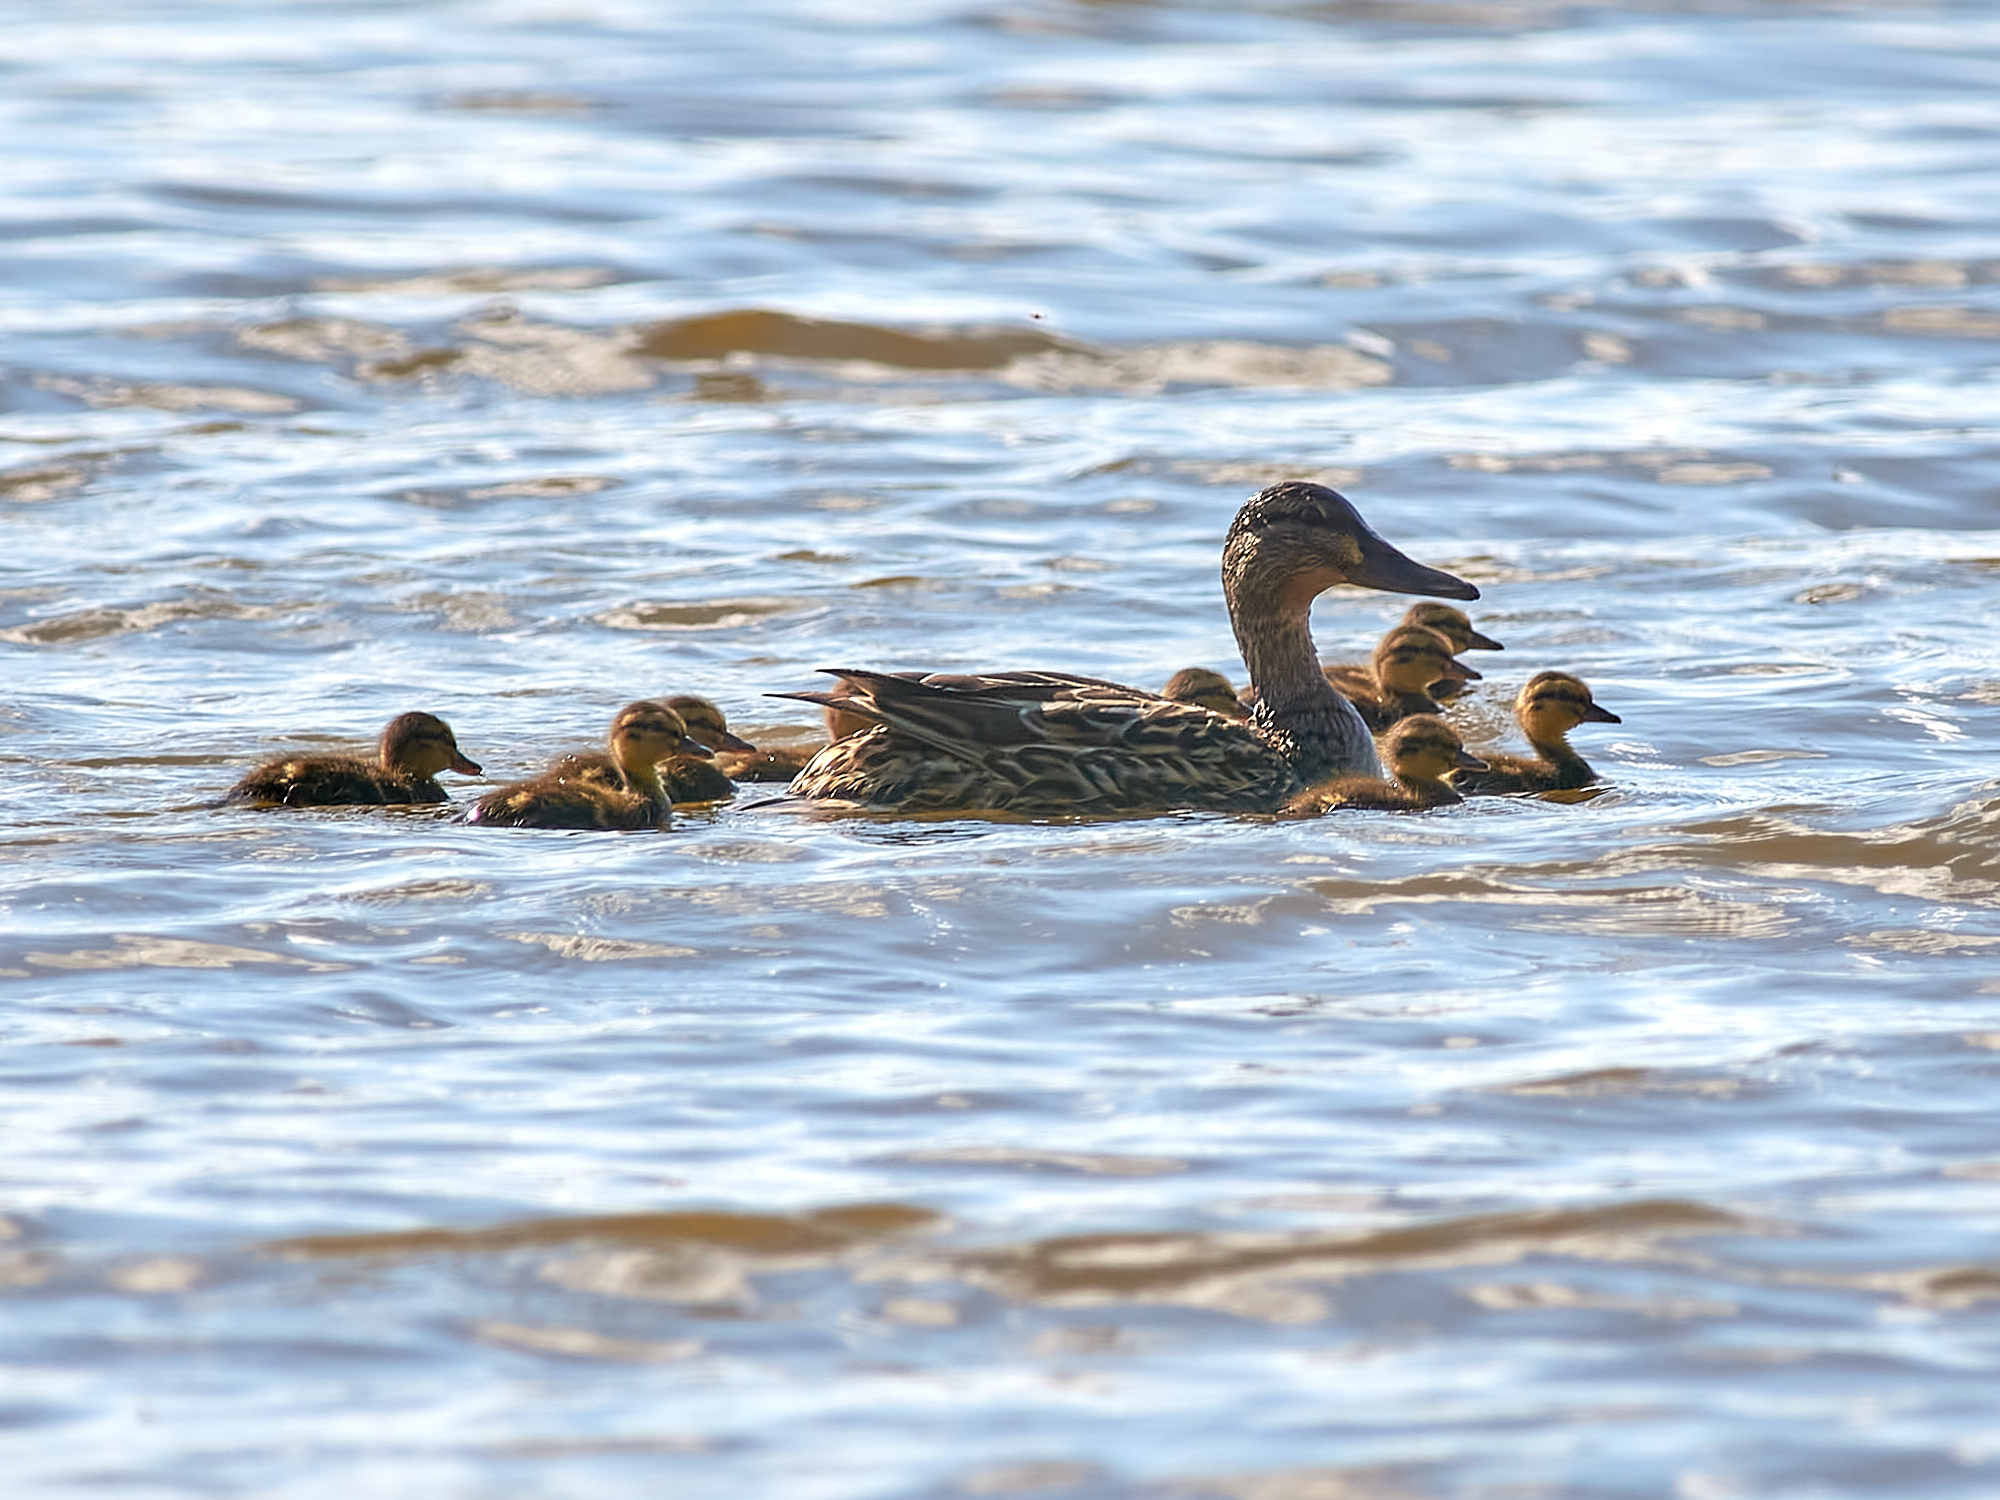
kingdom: Animalia
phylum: Chordata
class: Aves
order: Anseriformes
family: Anatidae
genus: Anas
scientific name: Anas platyrhynchos
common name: Mallard
